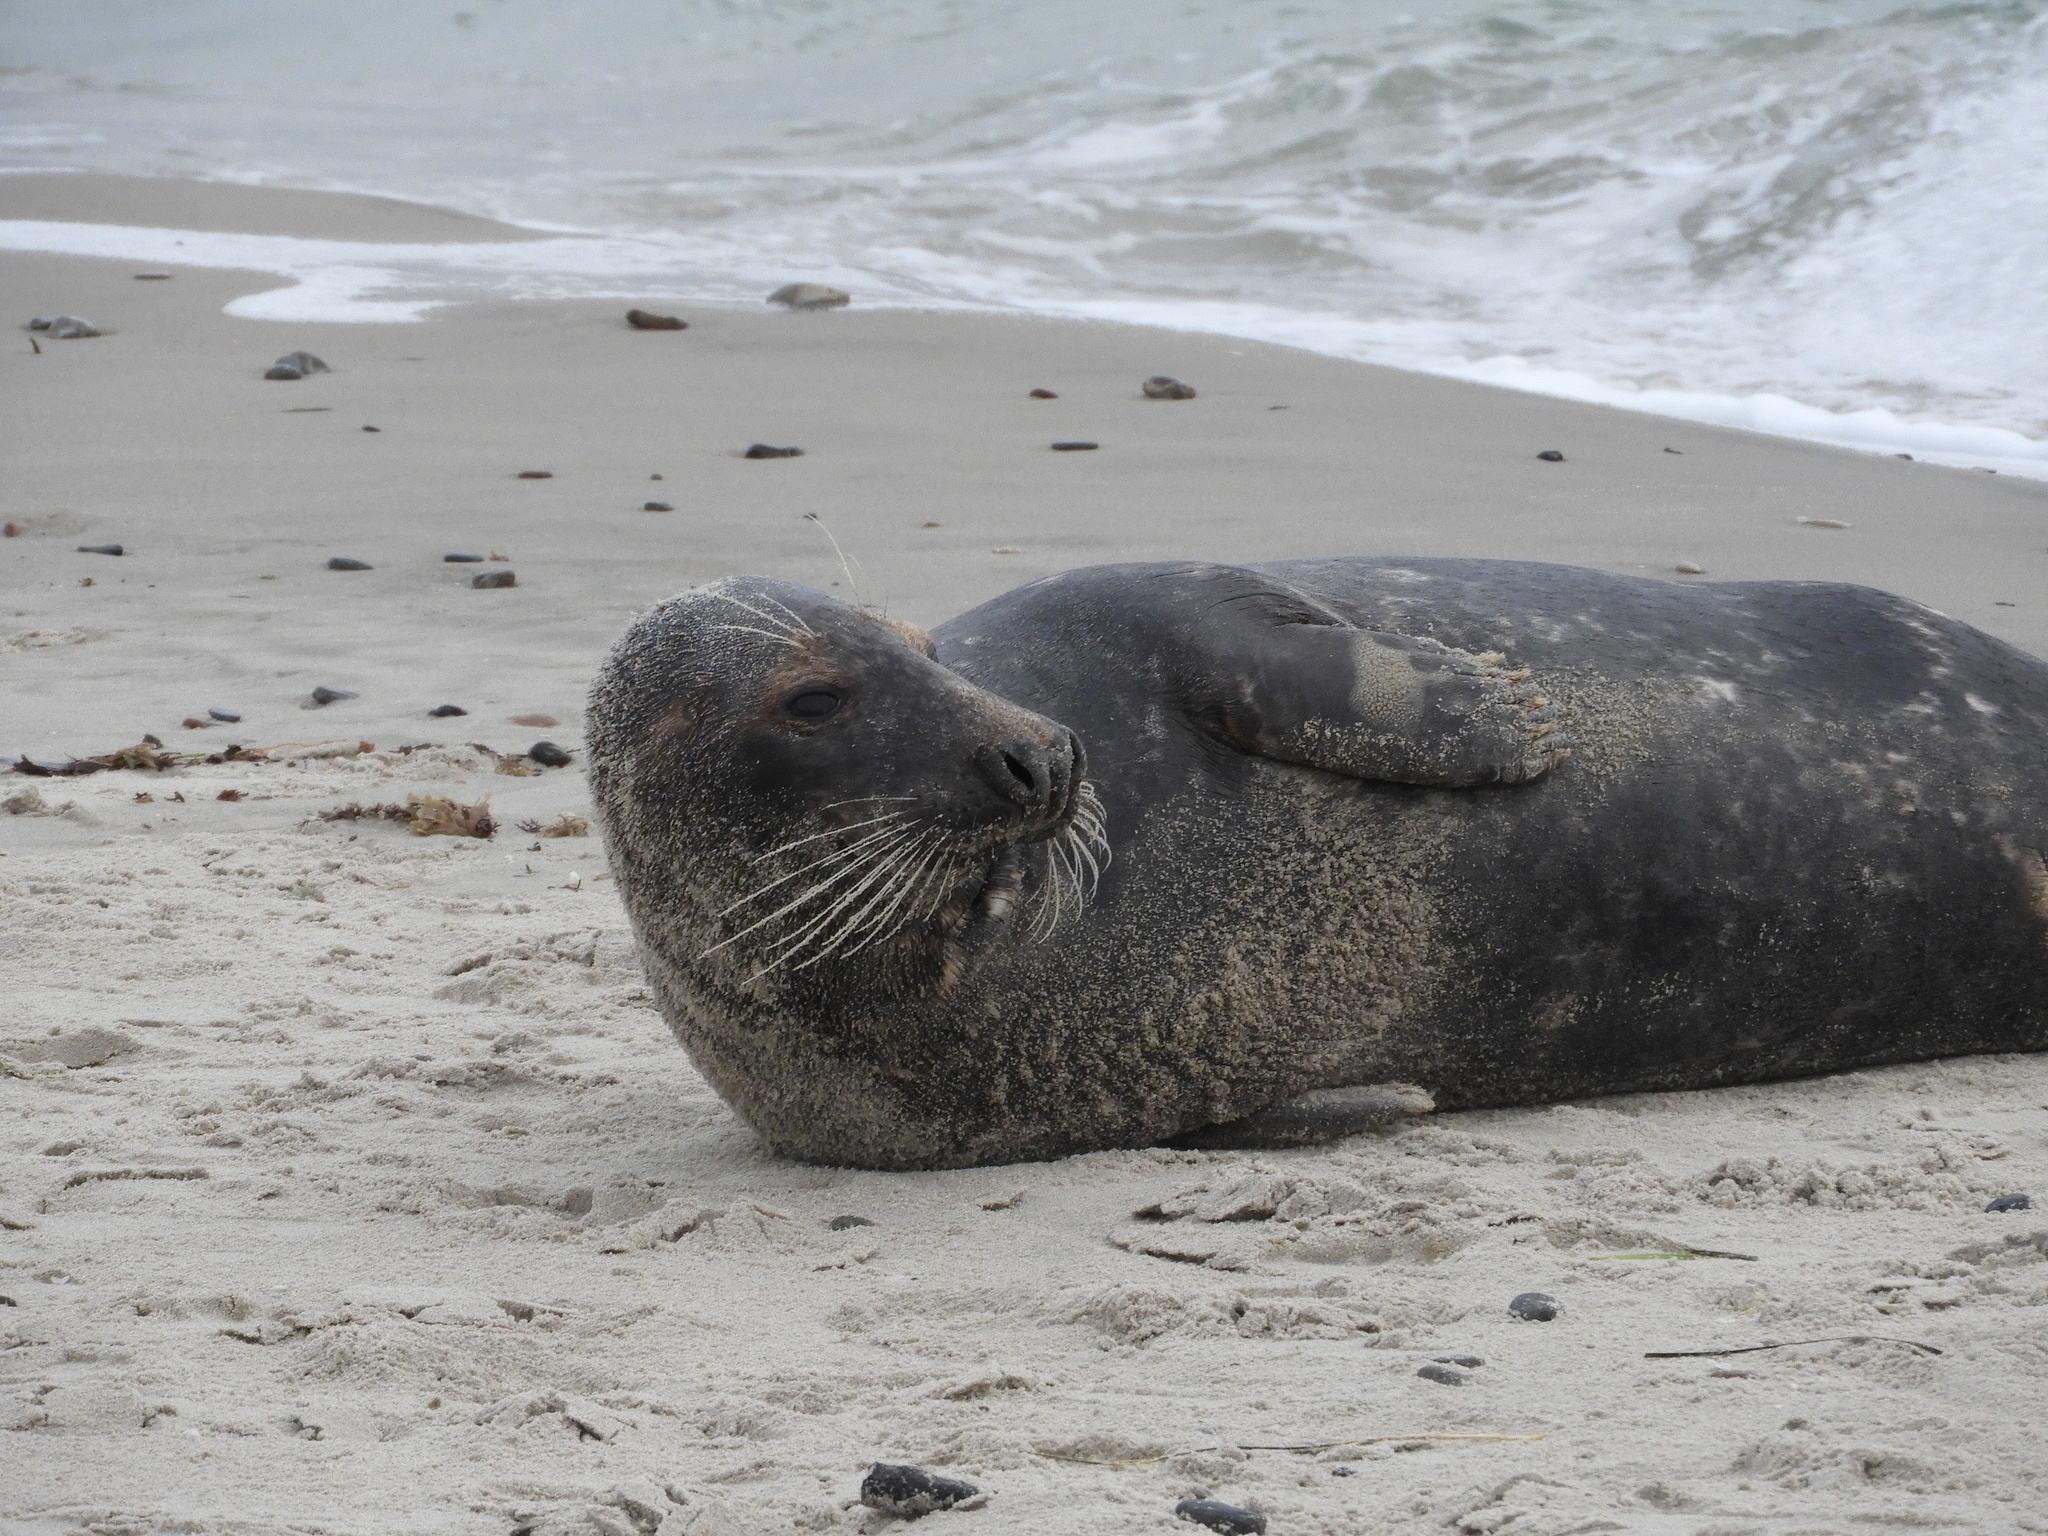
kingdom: Animalia
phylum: Chordata
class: Mammalia
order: Carnivora
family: Phocidae
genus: Halichoerus
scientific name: Halichoerus grypus
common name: Grey seal
